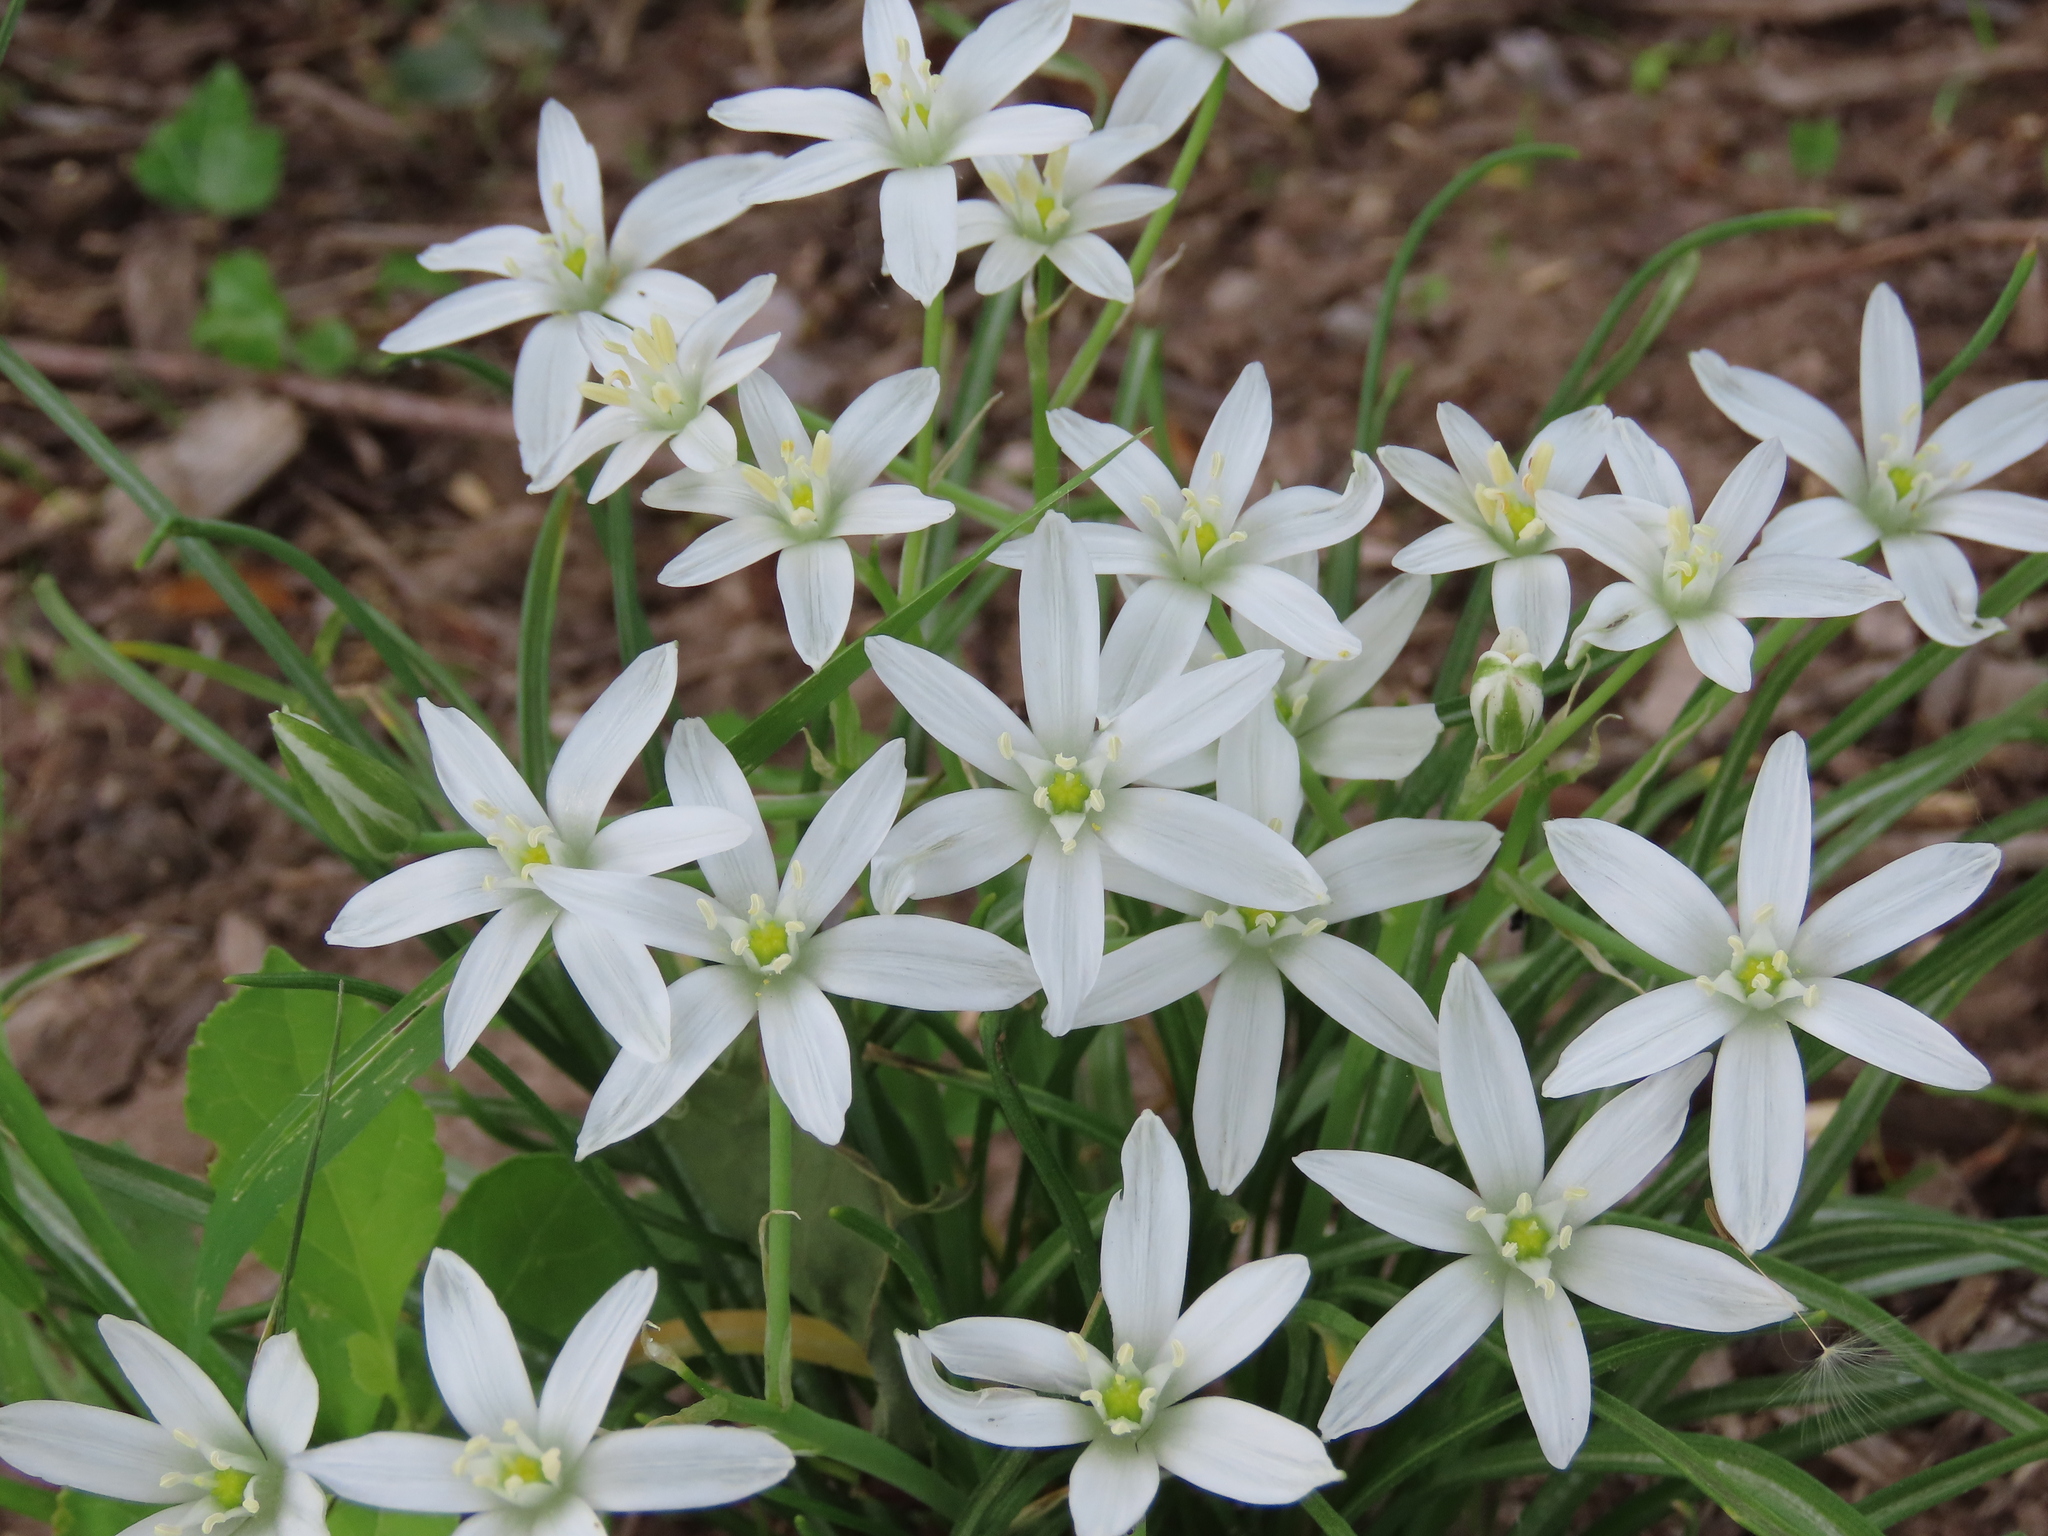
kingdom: Plantae
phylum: Tracheophyta
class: Liliopsida
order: Asparagales
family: Asparagaceae
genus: Ornithogalum
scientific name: Ornithogalum umbellatum
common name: Garden star-of-bethlehem
